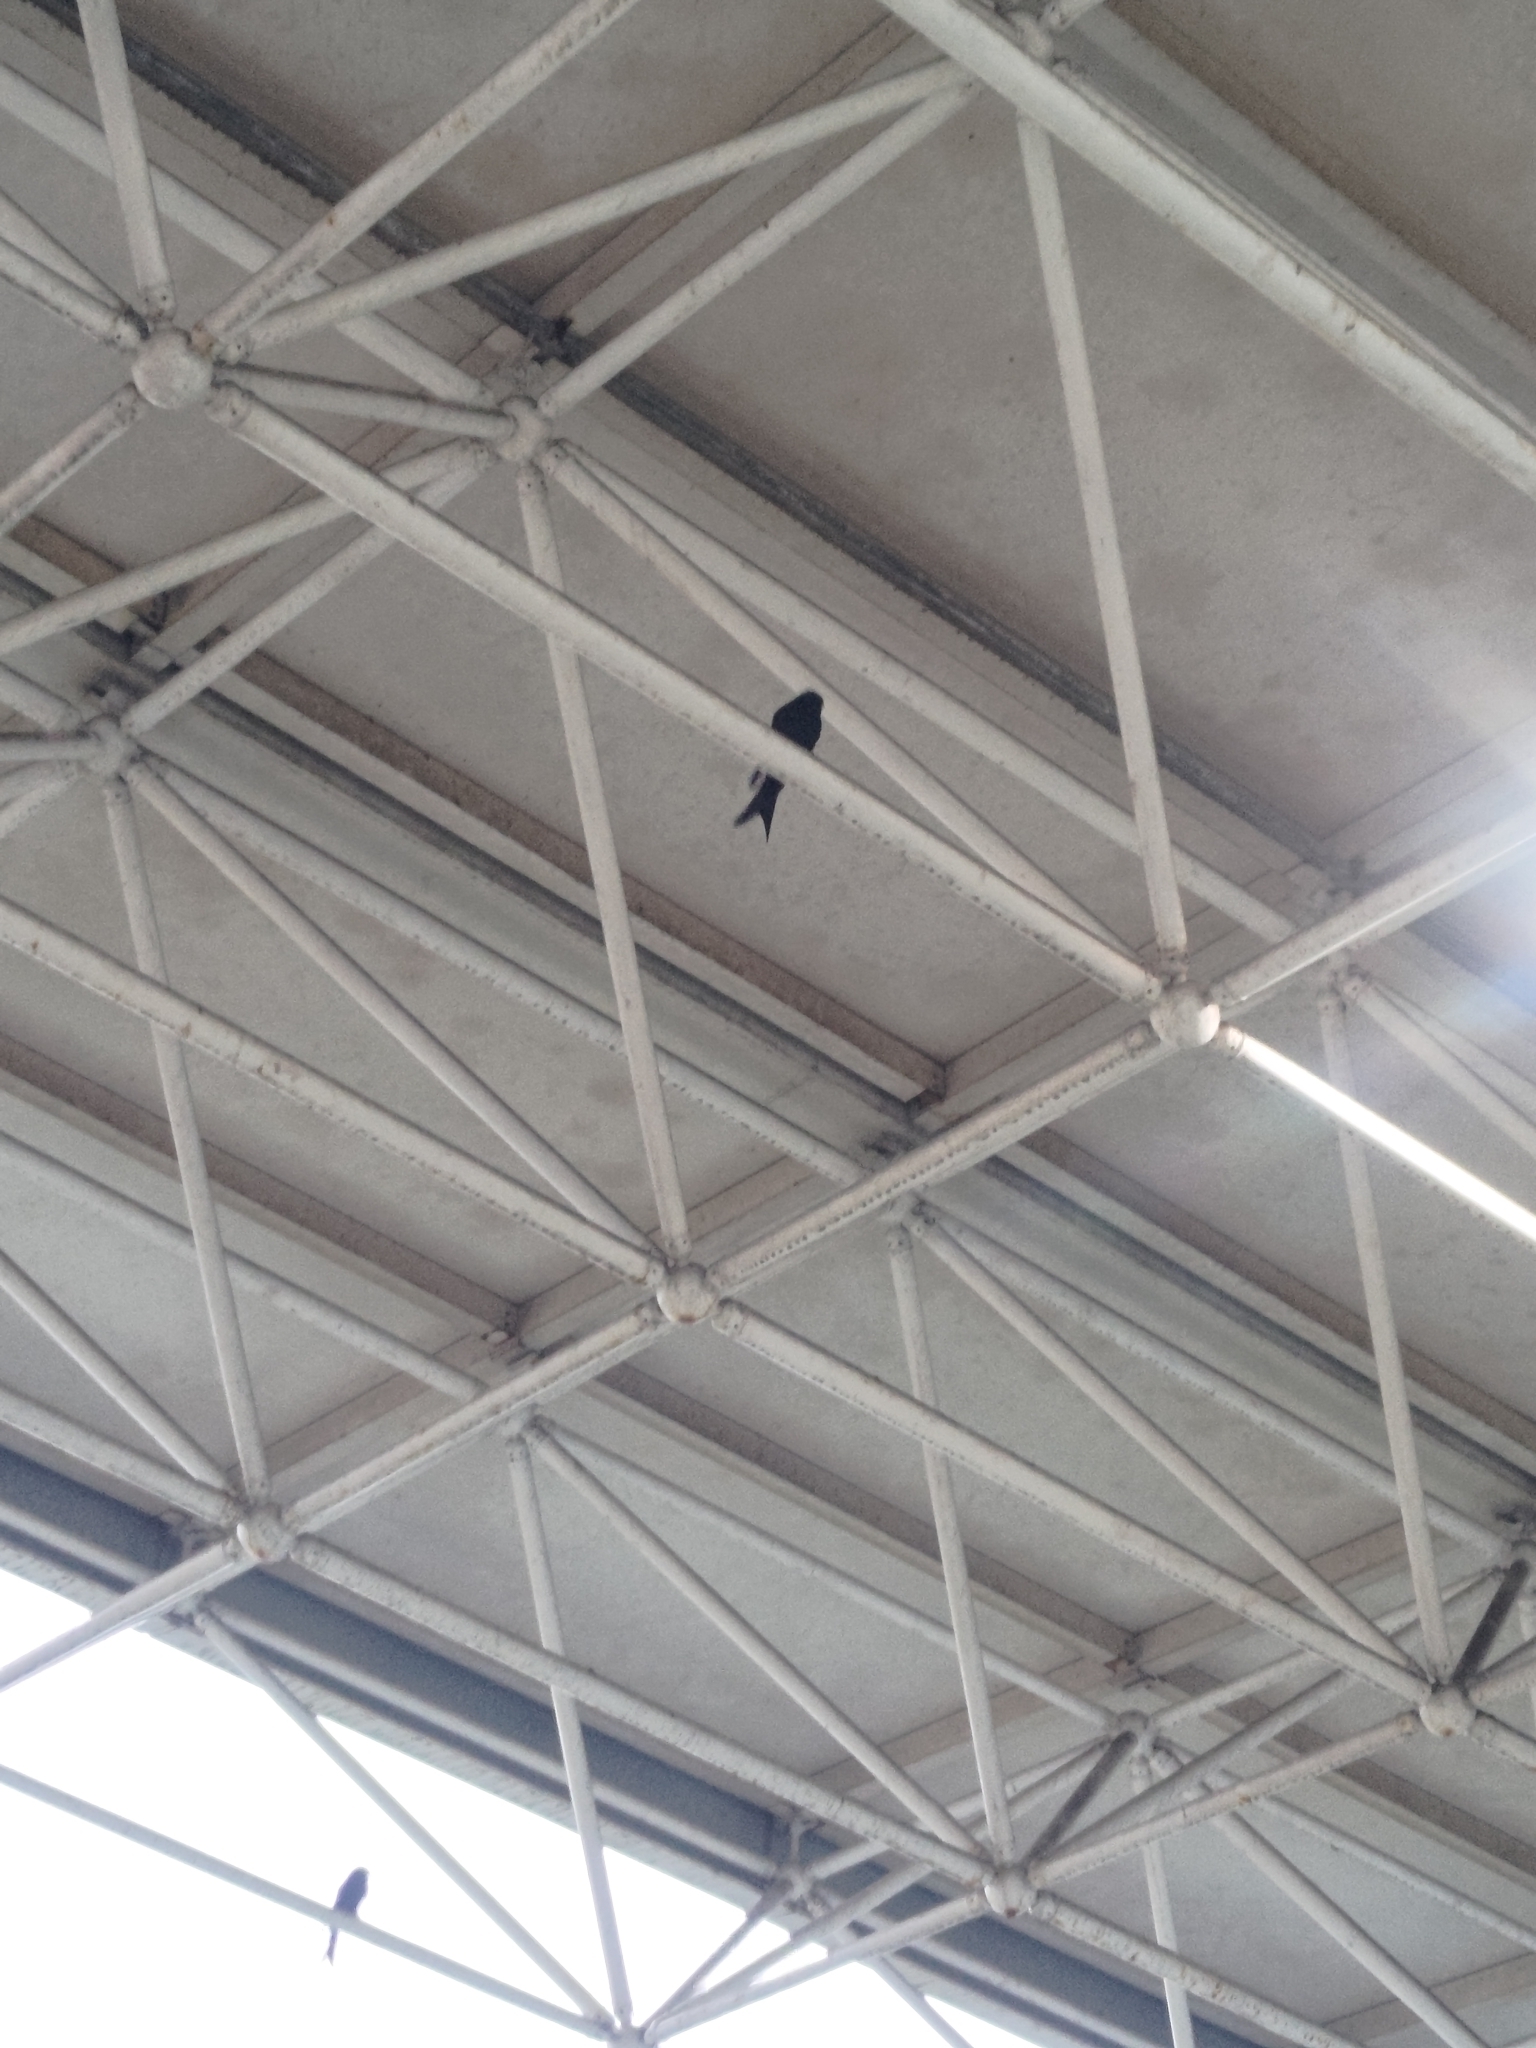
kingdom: Animalia
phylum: Chordata
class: Aves
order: Passeriformes
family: Dicruridae
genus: Dicrurus
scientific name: Dicrurus macrocercus
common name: Black drongo
